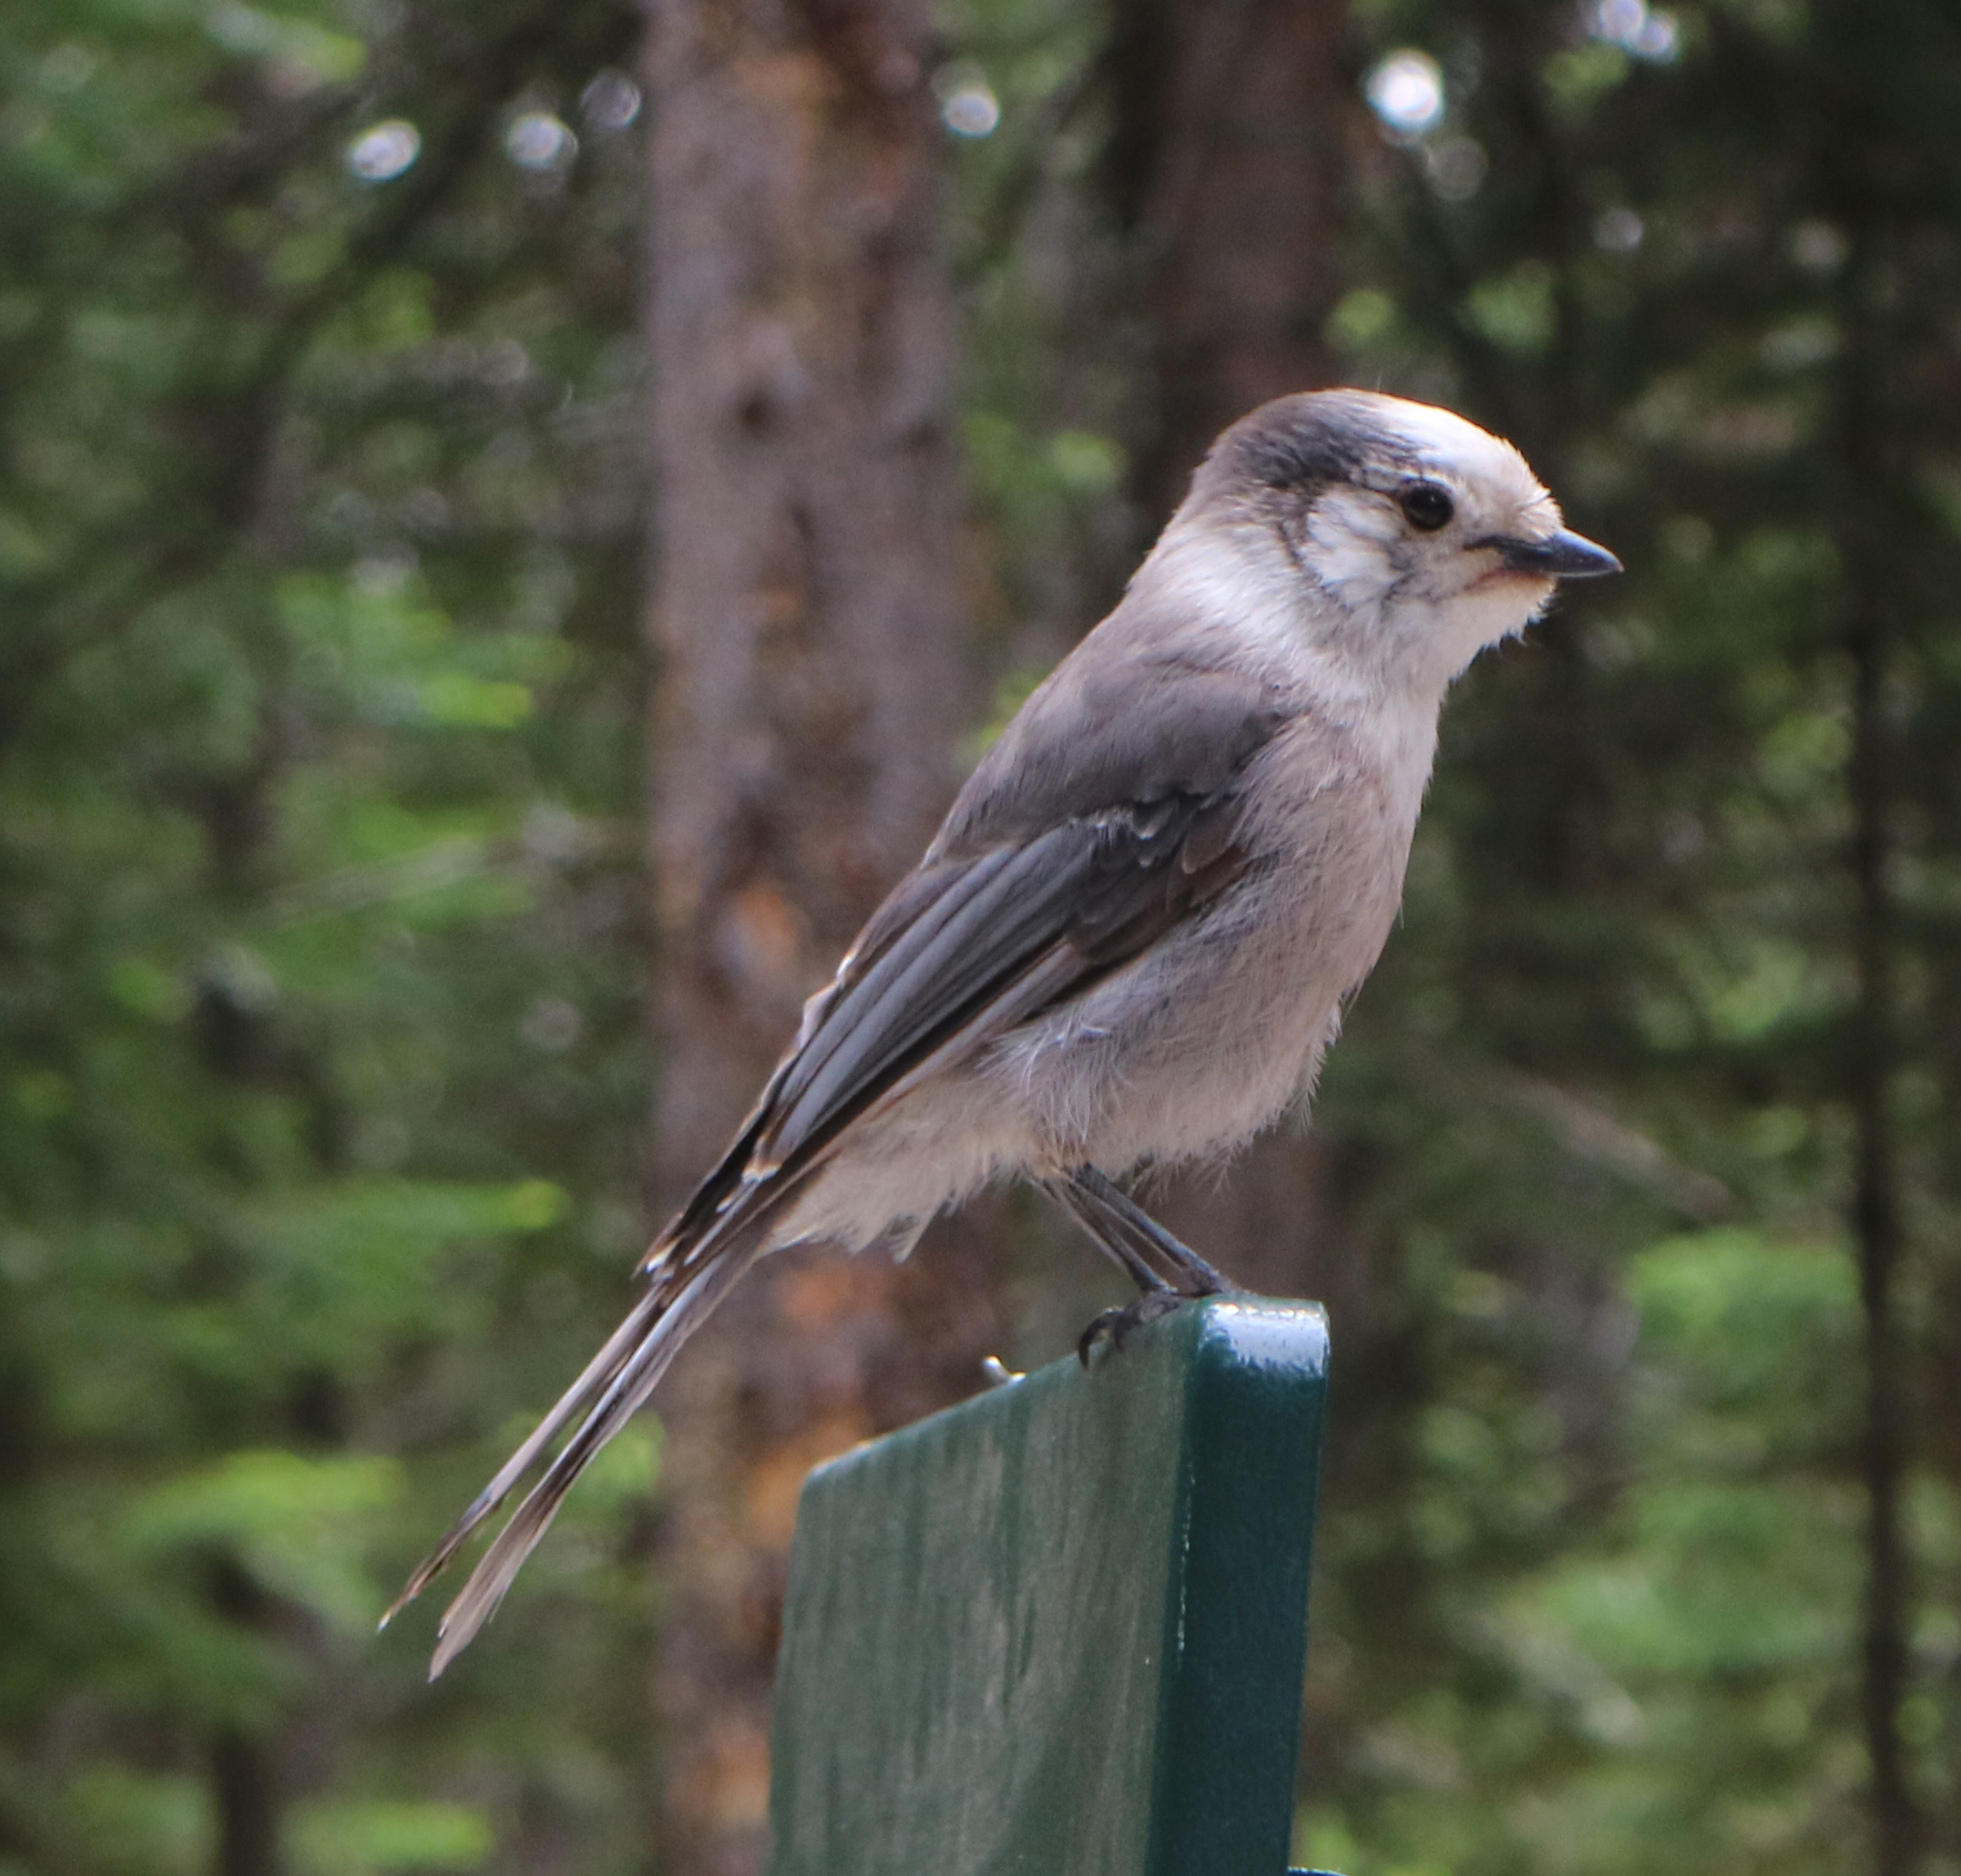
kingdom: Animalia
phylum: Chordata
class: Aves
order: Passeriformes
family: Corvidae
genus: Perisoreus
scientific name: Perisoreus canadensis
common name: Gray jay
